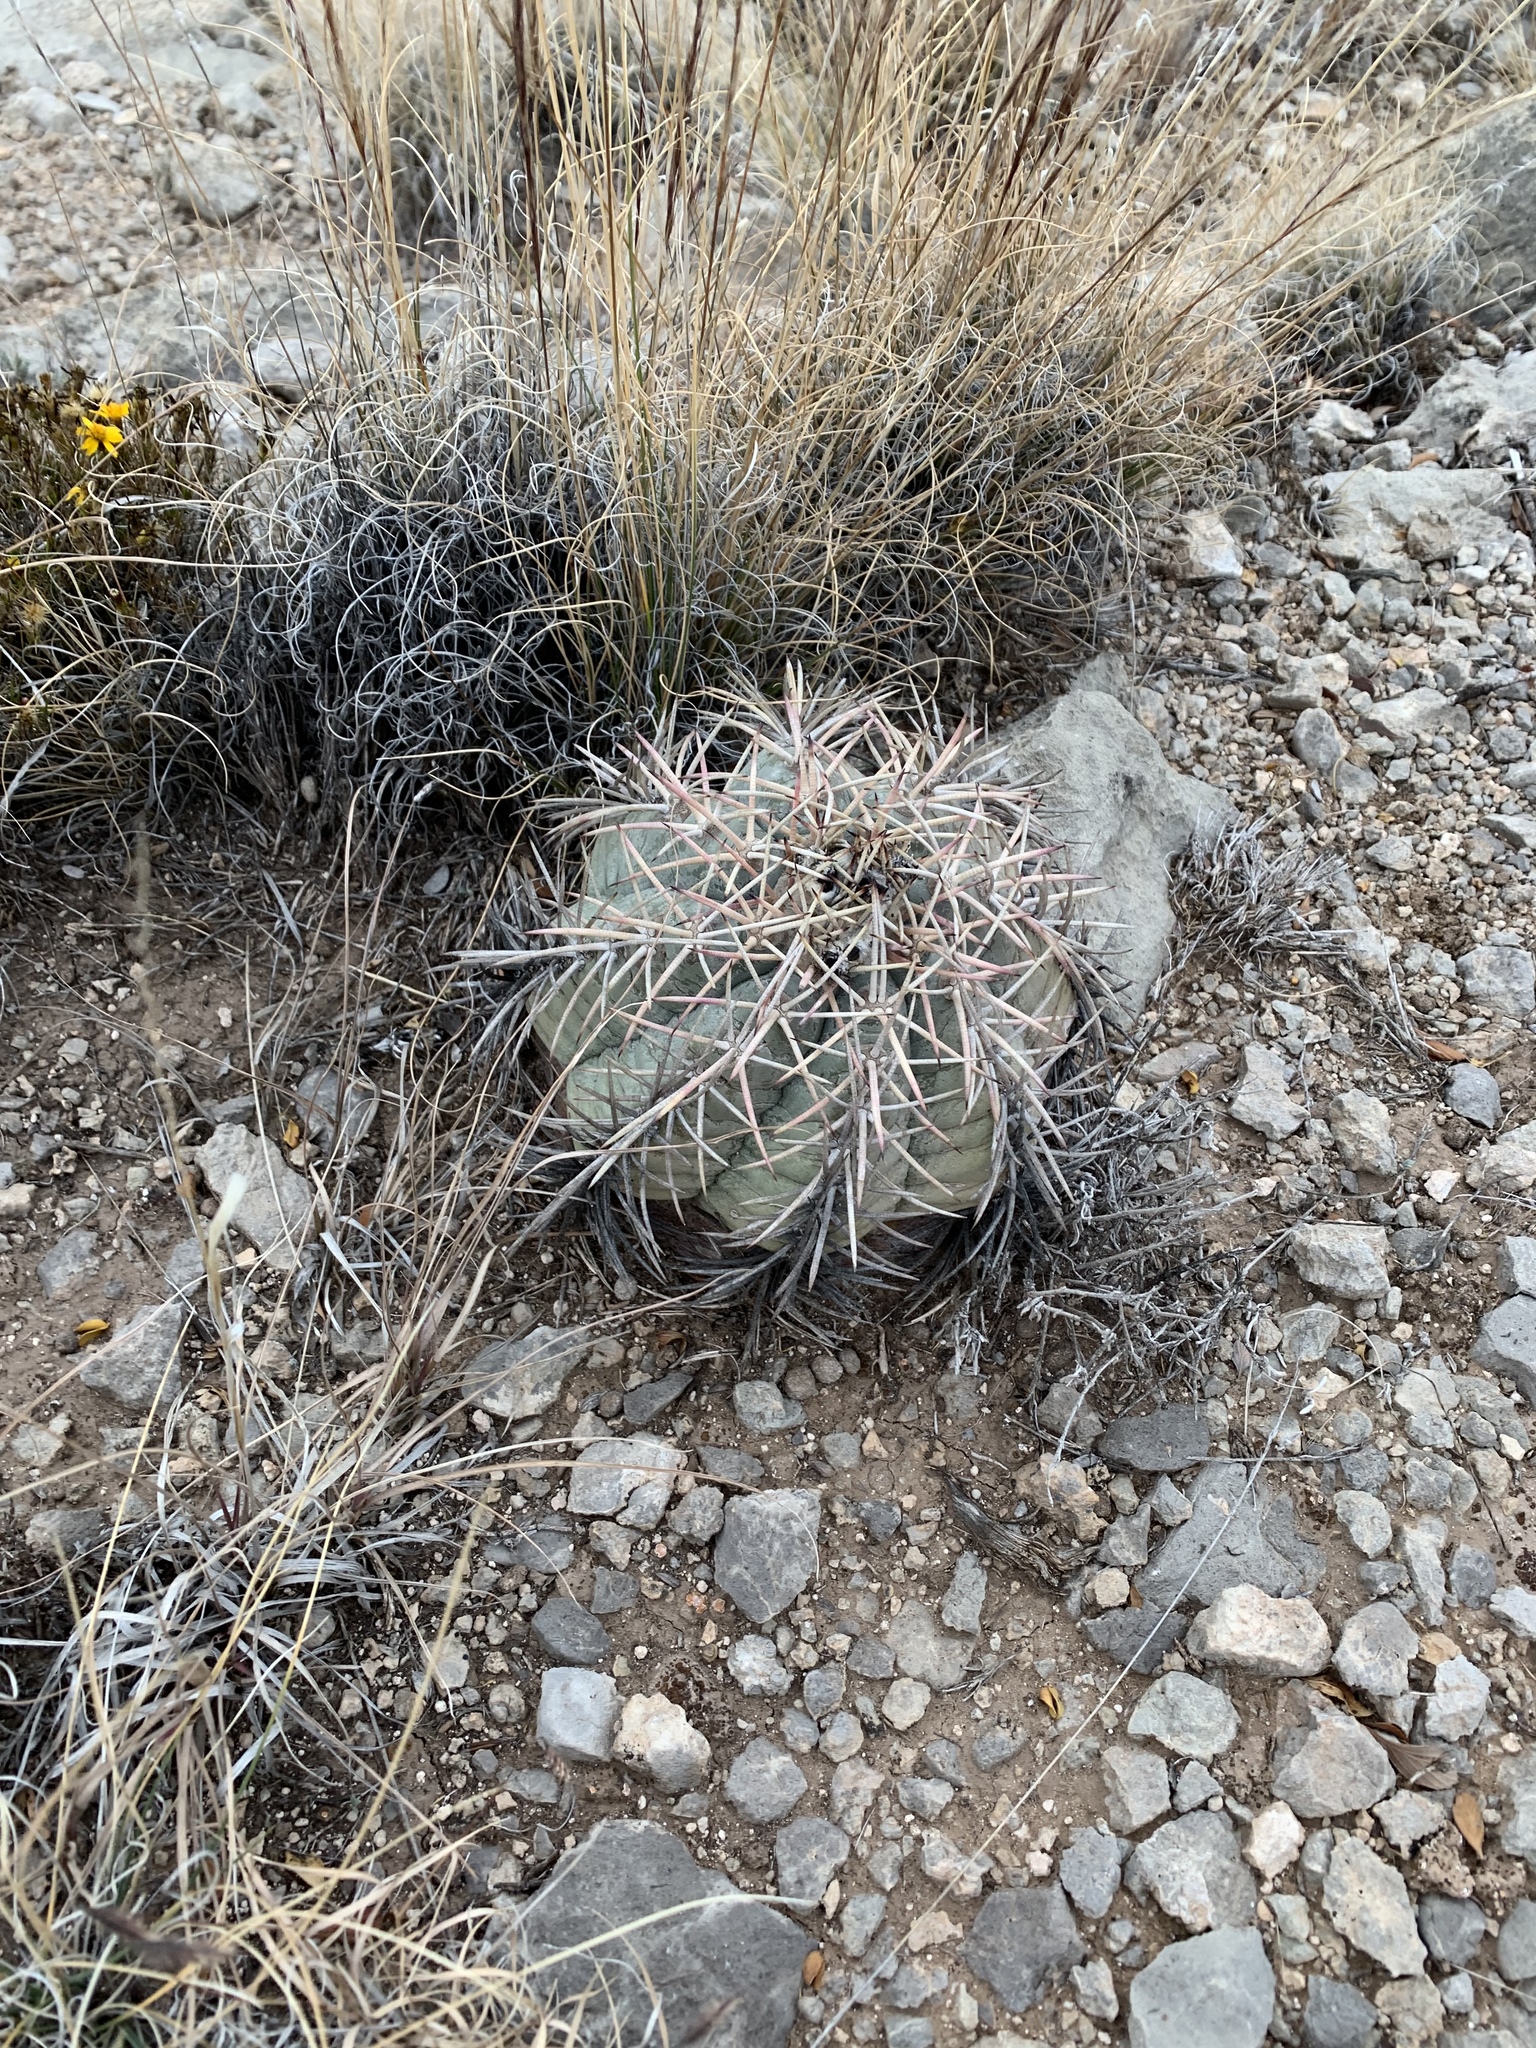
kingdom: Plantae
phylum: Tracheophyta
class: Magnoliopsida
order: Caryophyllales
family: Cactaceae
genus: Echinocactus
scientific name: Echinocactus horizonthalonius
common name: Devilshead
